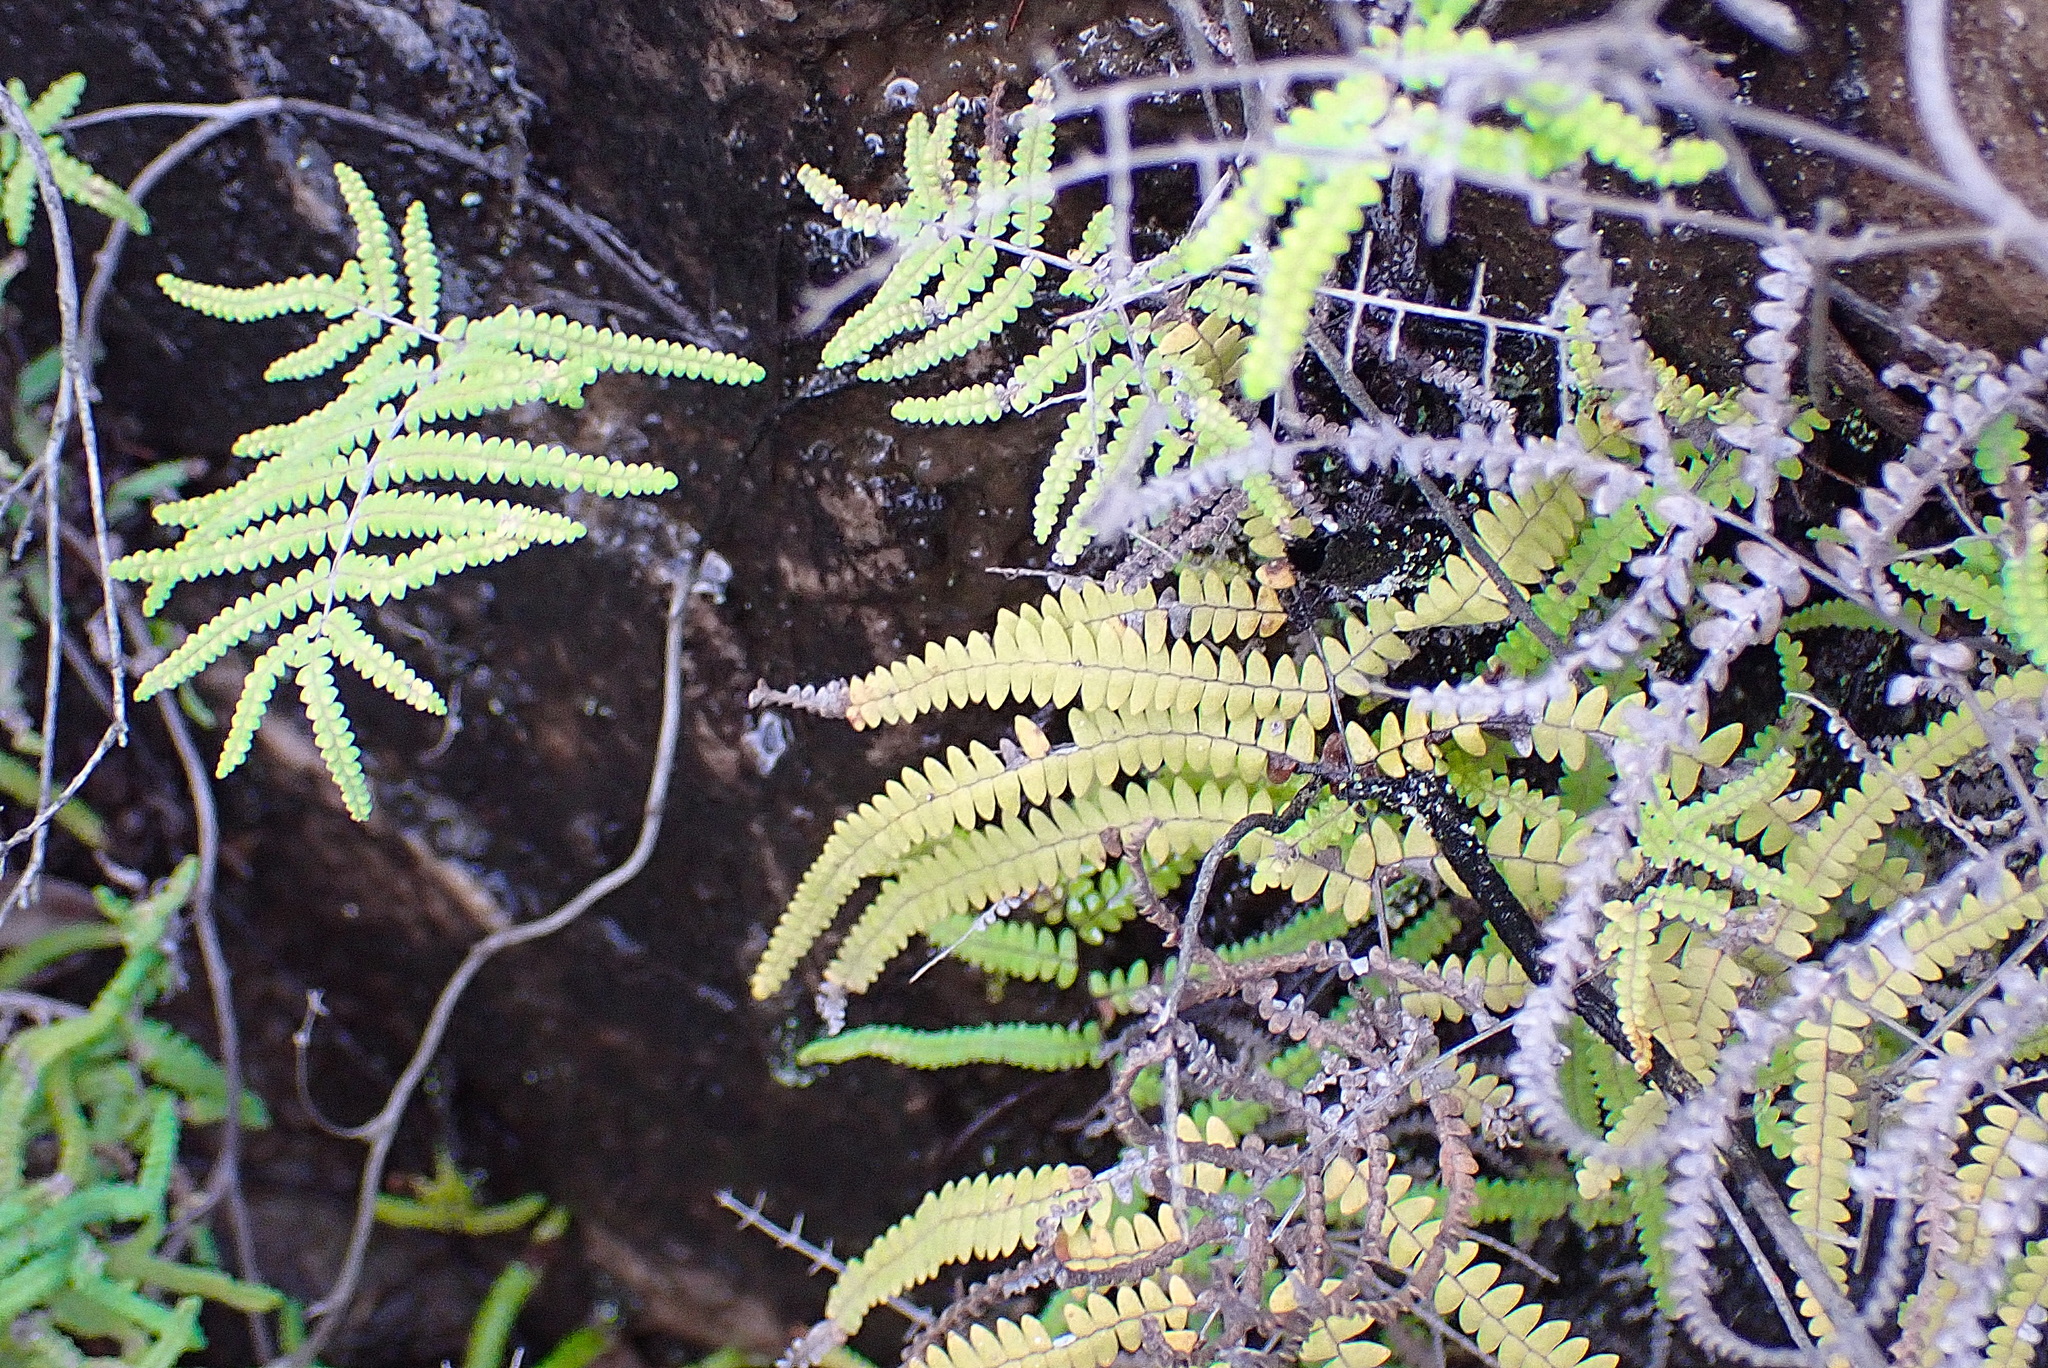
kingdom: Plantae
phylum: Tracheophyta
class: Polypodiopsida
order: Gleicheniales
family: Gleicheniaceae
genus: Gleichenia
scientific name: Gleichenia polypodioides
